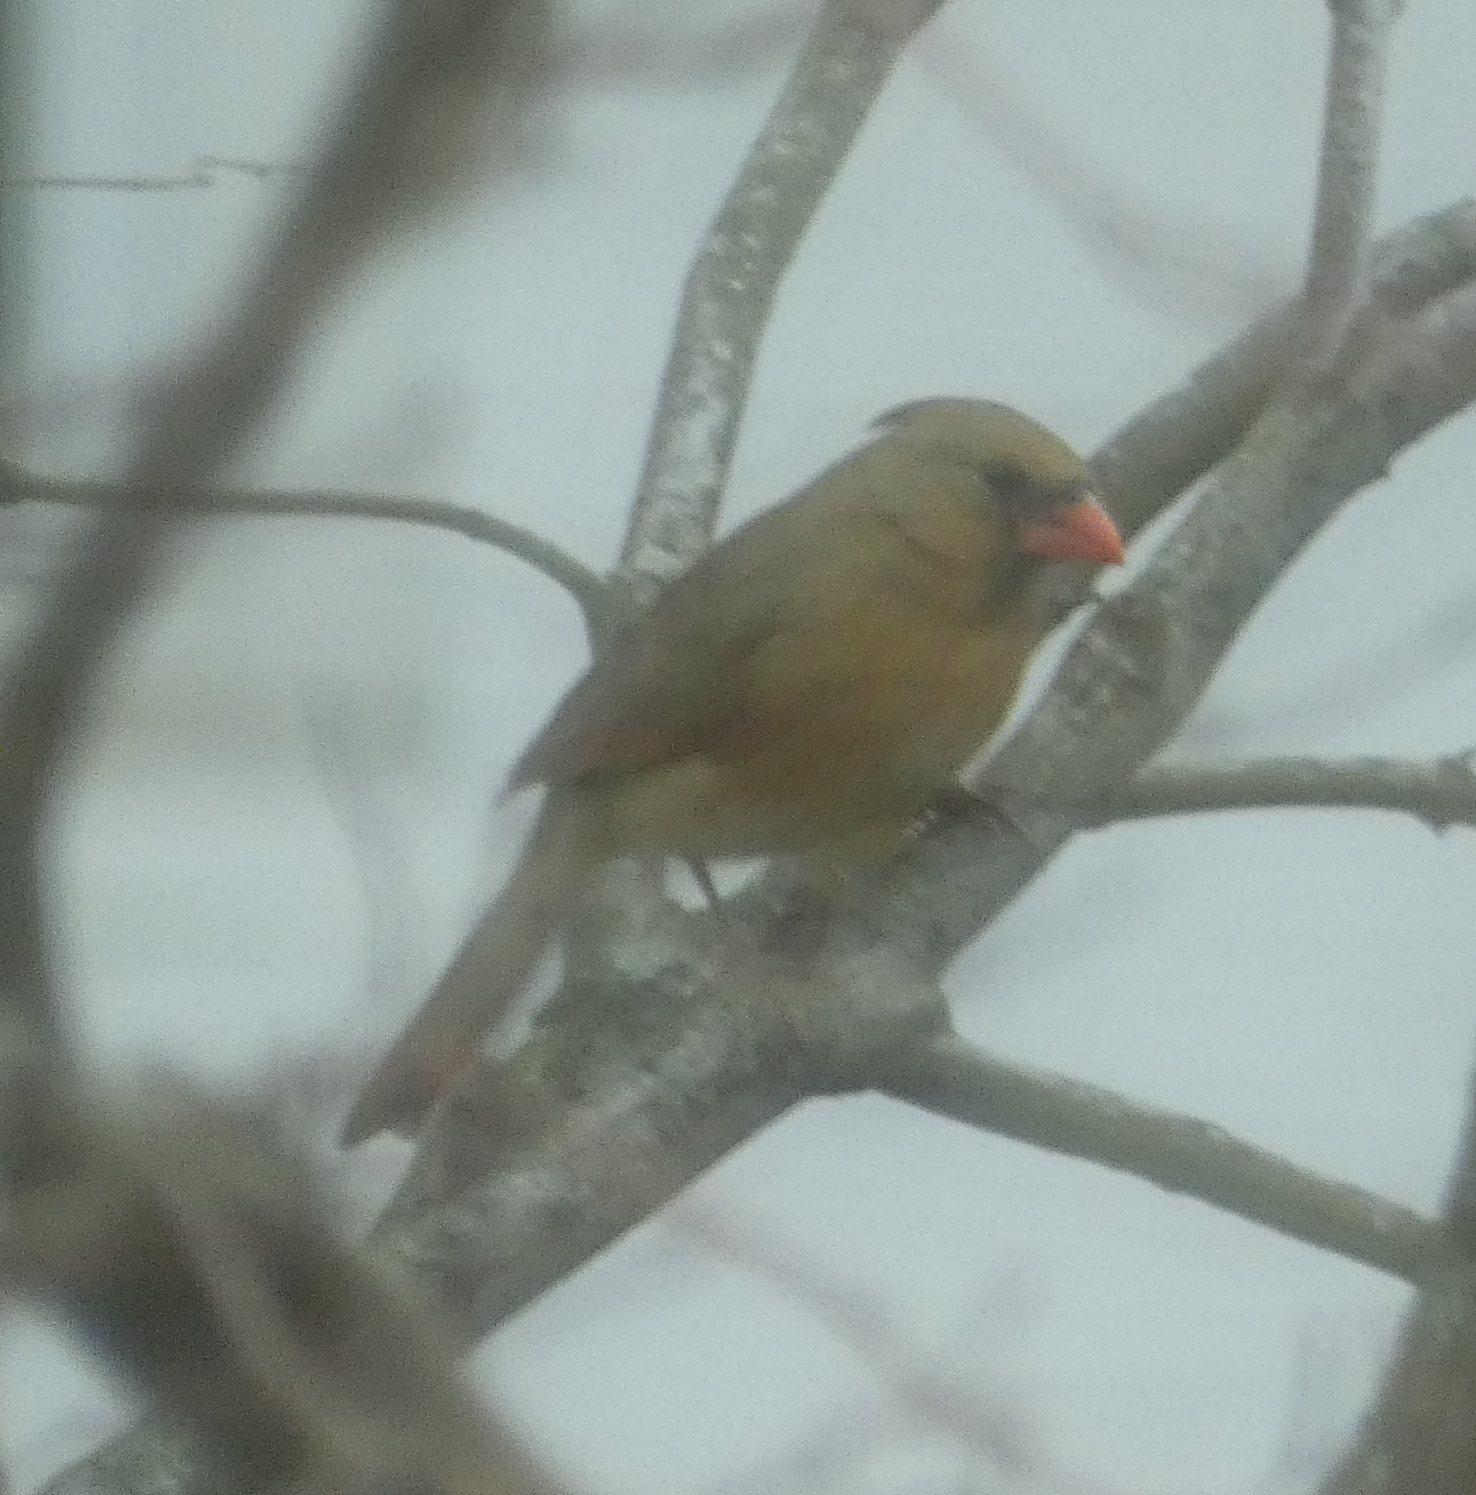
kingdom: Animalia
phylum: Chordata
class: Aves
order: Passeriformes
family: Cardinalidae
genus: Cardinalis
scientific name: Cardinalis cardinalis
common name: Northern cardinal
